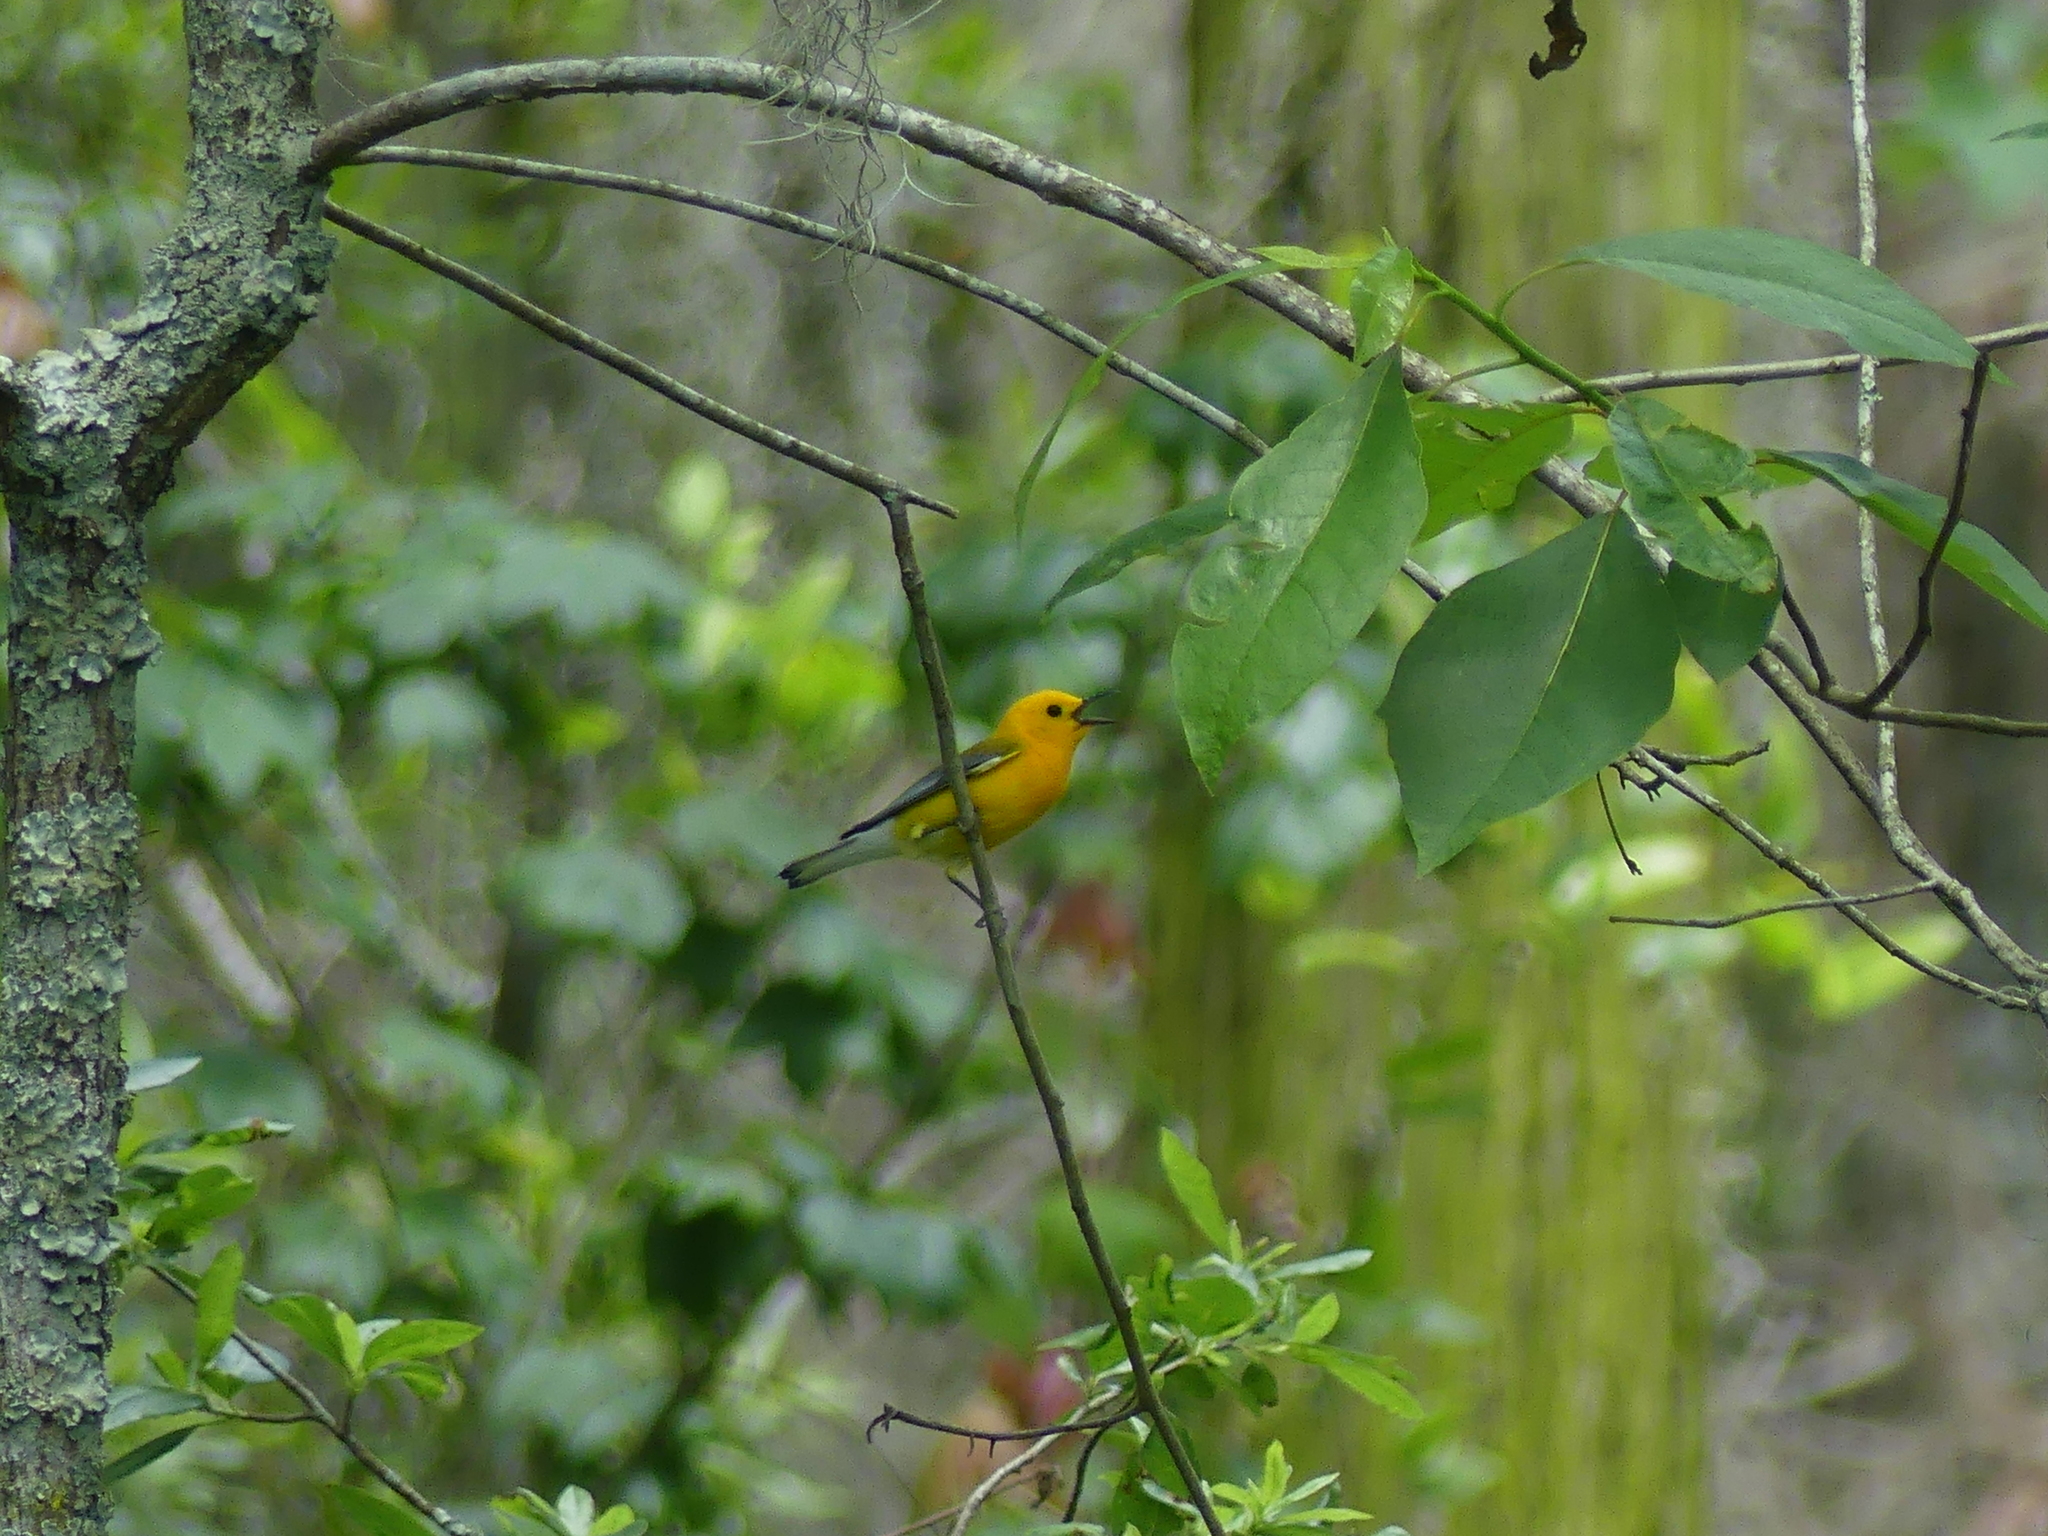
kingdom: Animalia
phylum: Chordata
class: Aves
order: Passeriformes
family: Parulidae
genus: Protonotaria
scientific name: Protonotaria citrea
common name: Prothonotary warbler
